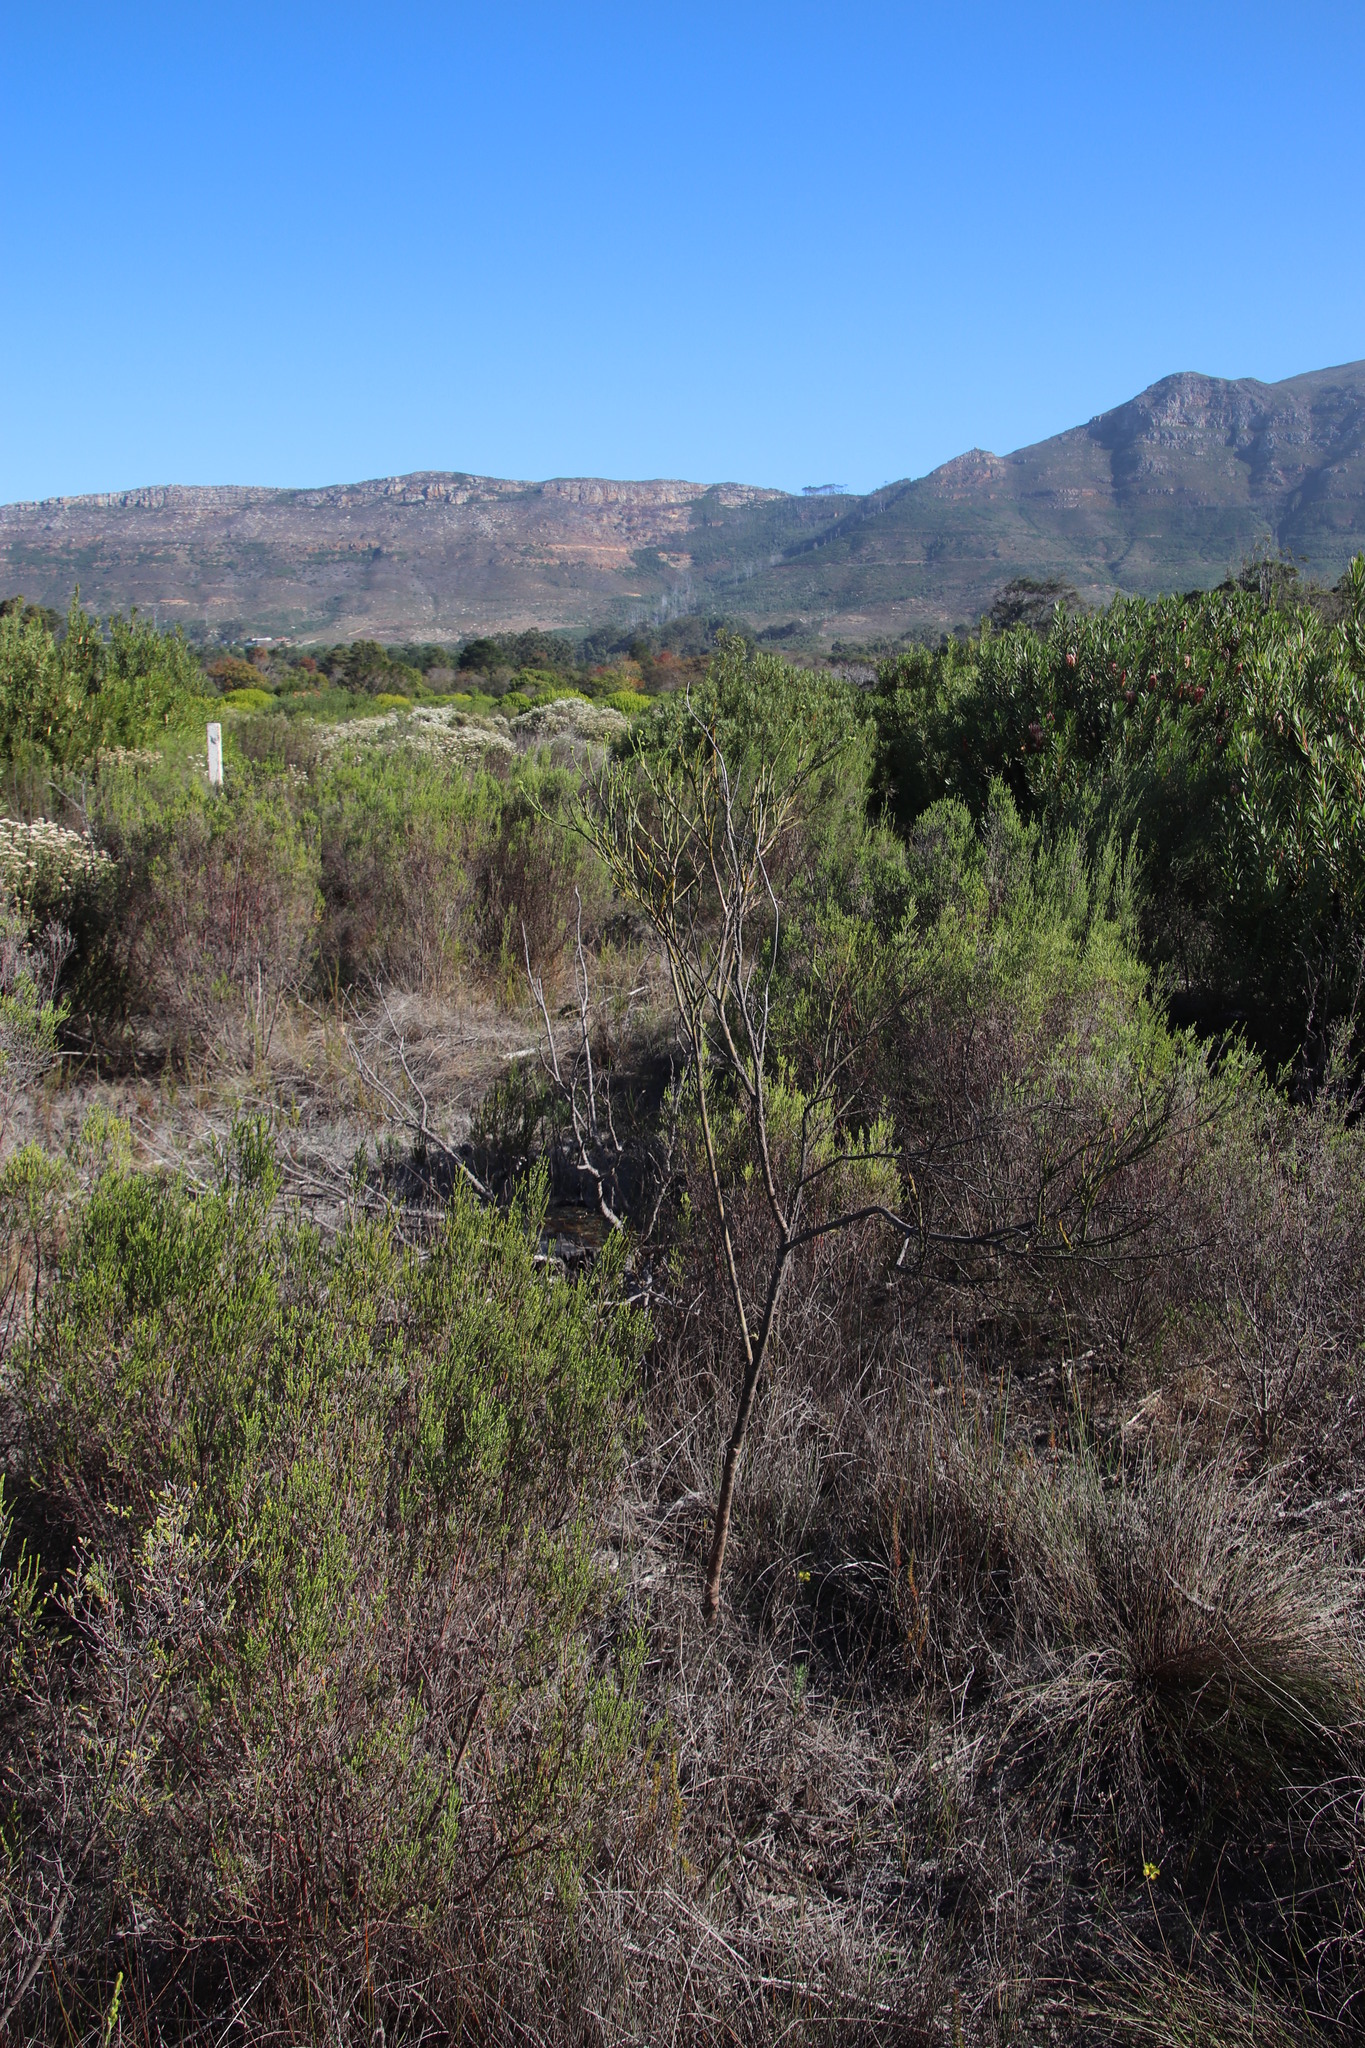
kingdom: Plantae
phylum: Tracheophyta
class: Magnoliopsida
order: Santalales
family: Thesiaceae
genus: Thesium
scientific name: Thesium strictum
